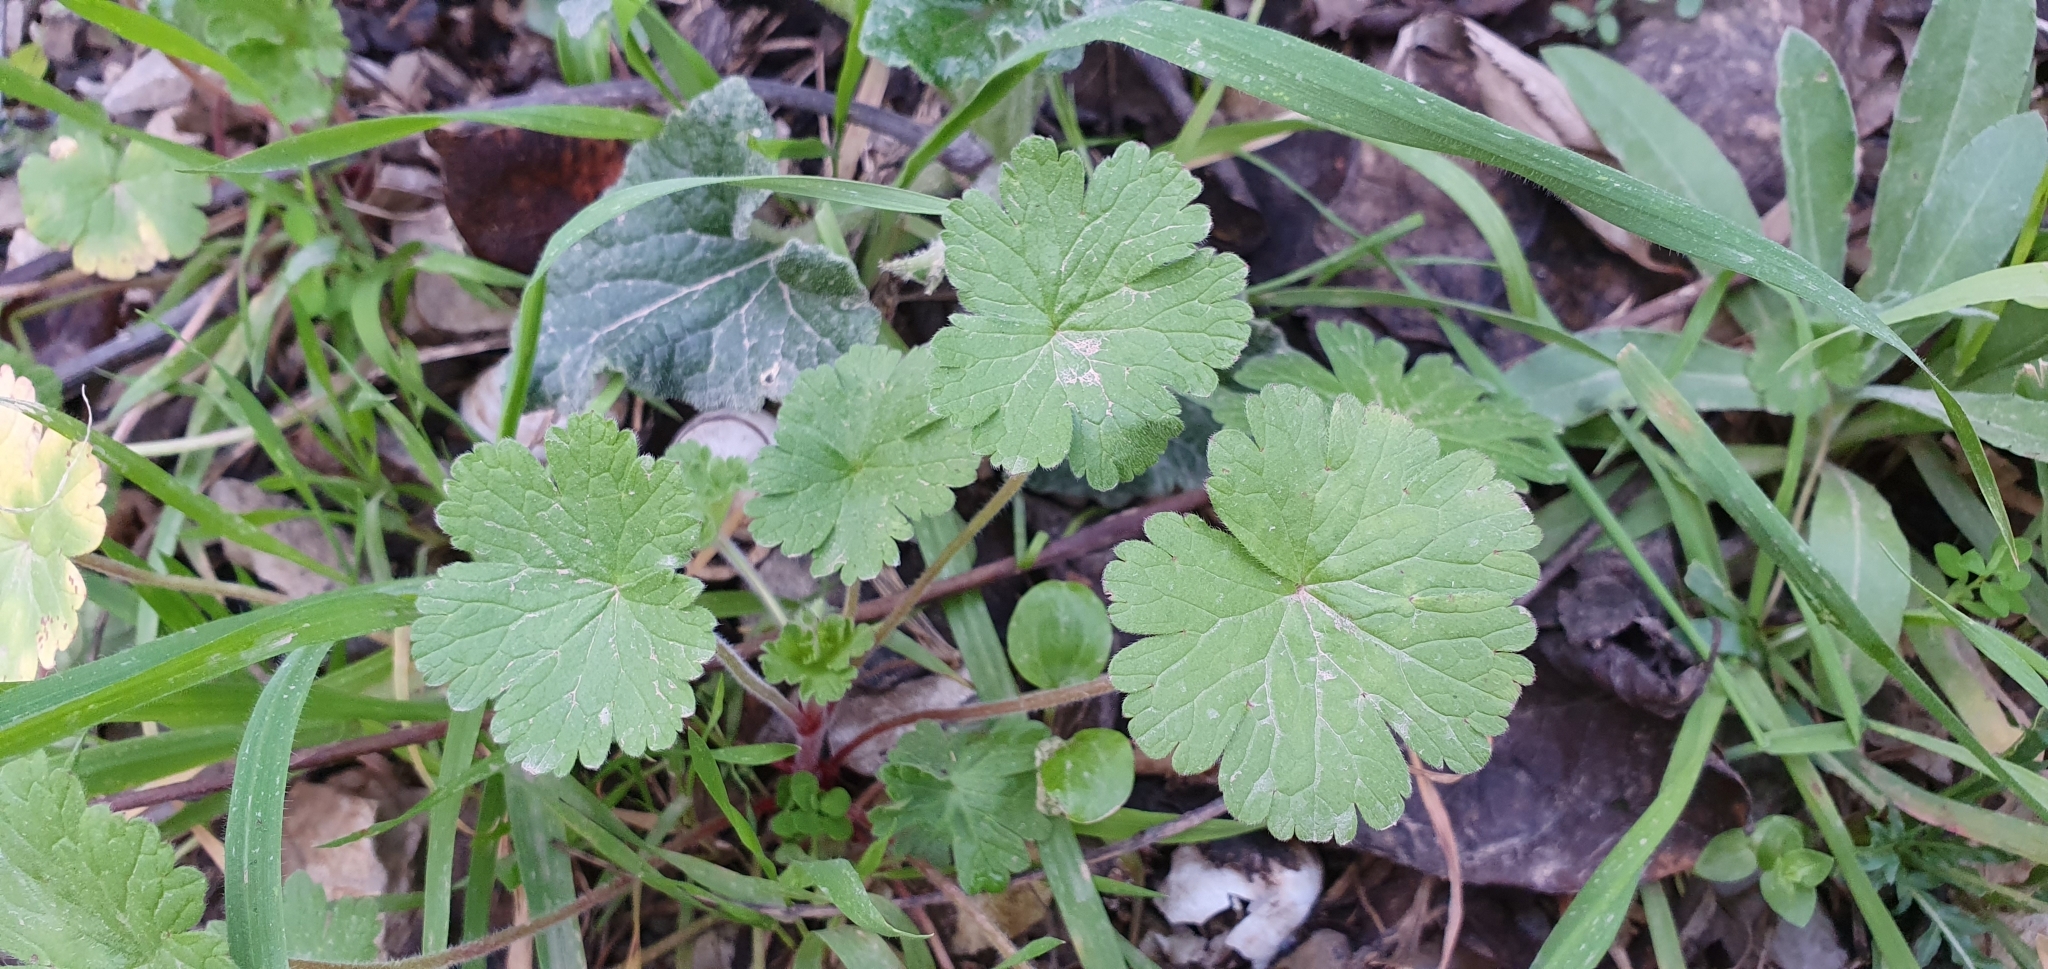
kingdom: Plantae
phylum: Tracheophyta
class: Magnoliopsida
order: Geraniales
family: Geraniaceae
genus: Geranium
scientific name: Geranium rotundifolium
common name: Round-leaved crane's-bill
